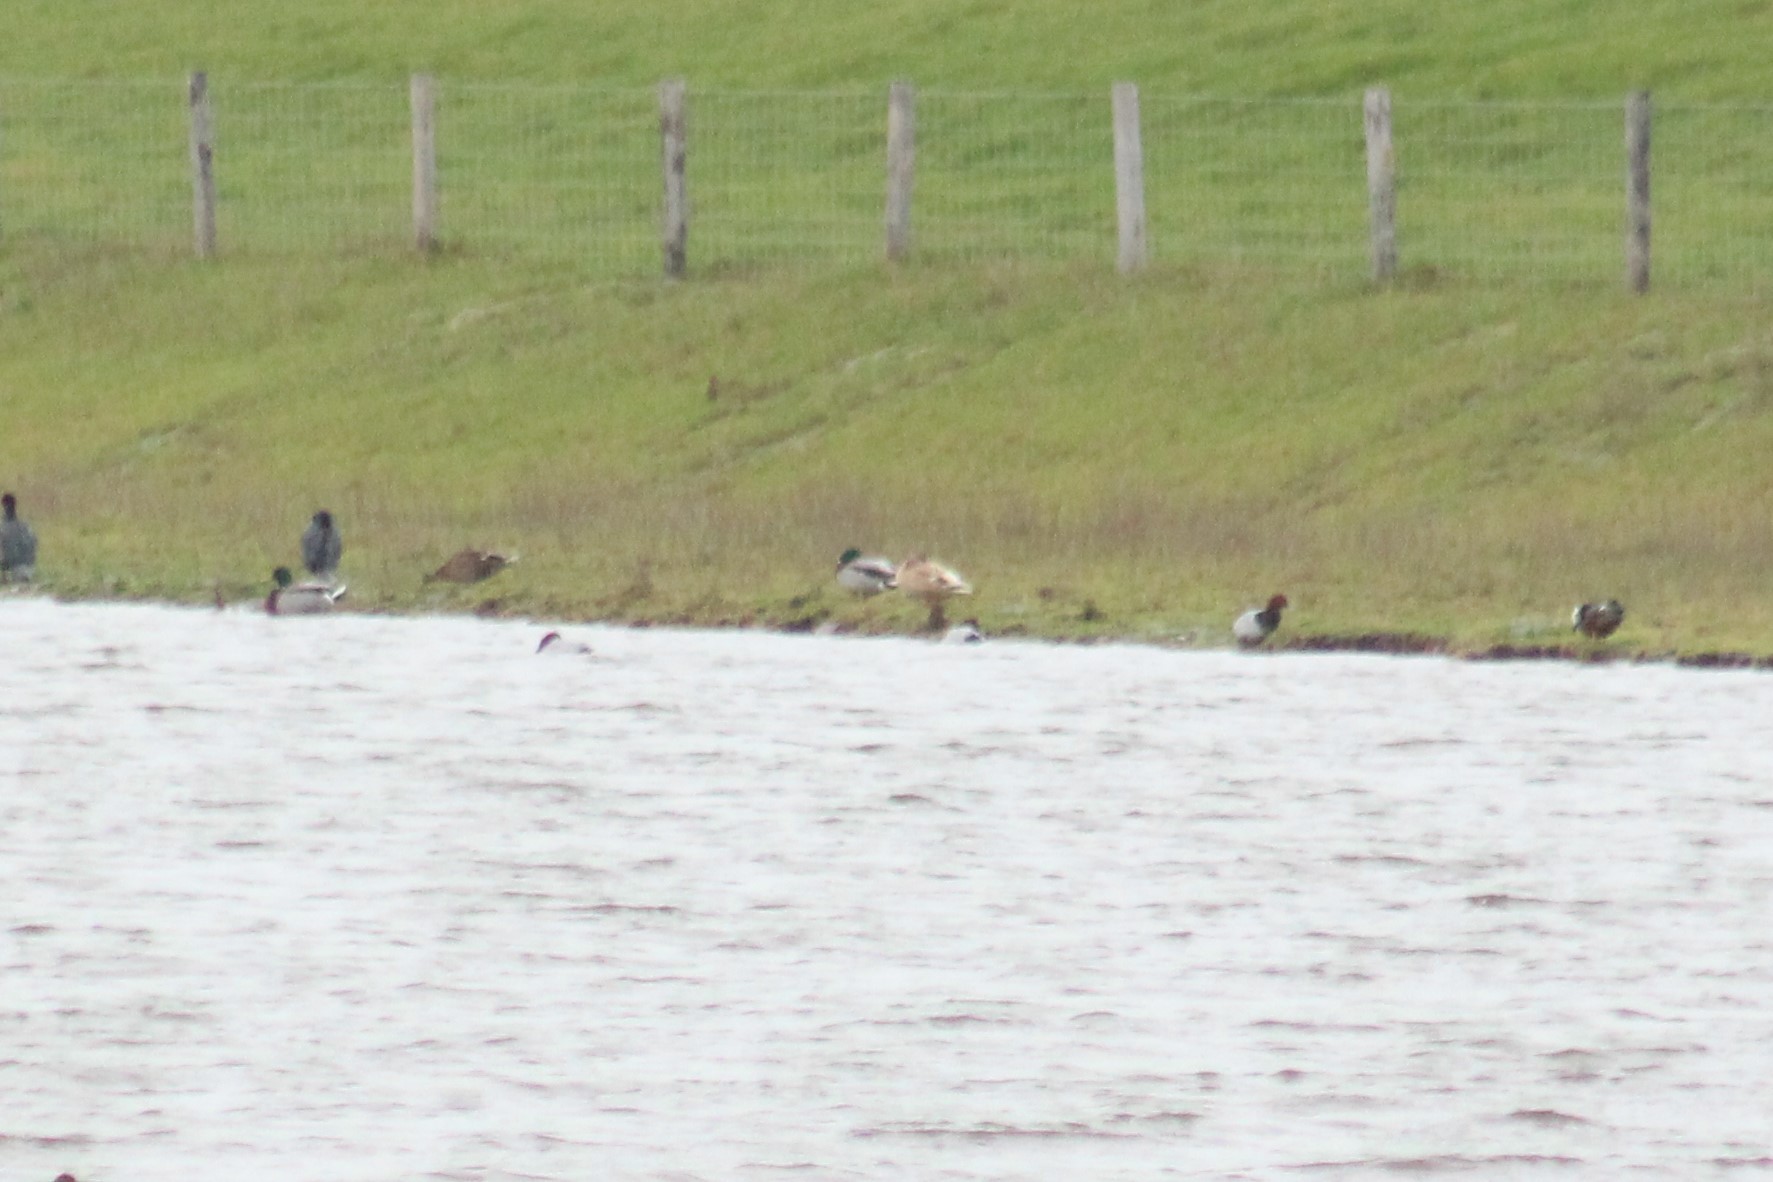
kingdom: Animalia
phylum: Chordata
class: Aves
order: Anseriformes
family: Anatidae
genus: Anas
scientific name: Anas platyrhynchos
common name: Mallard
